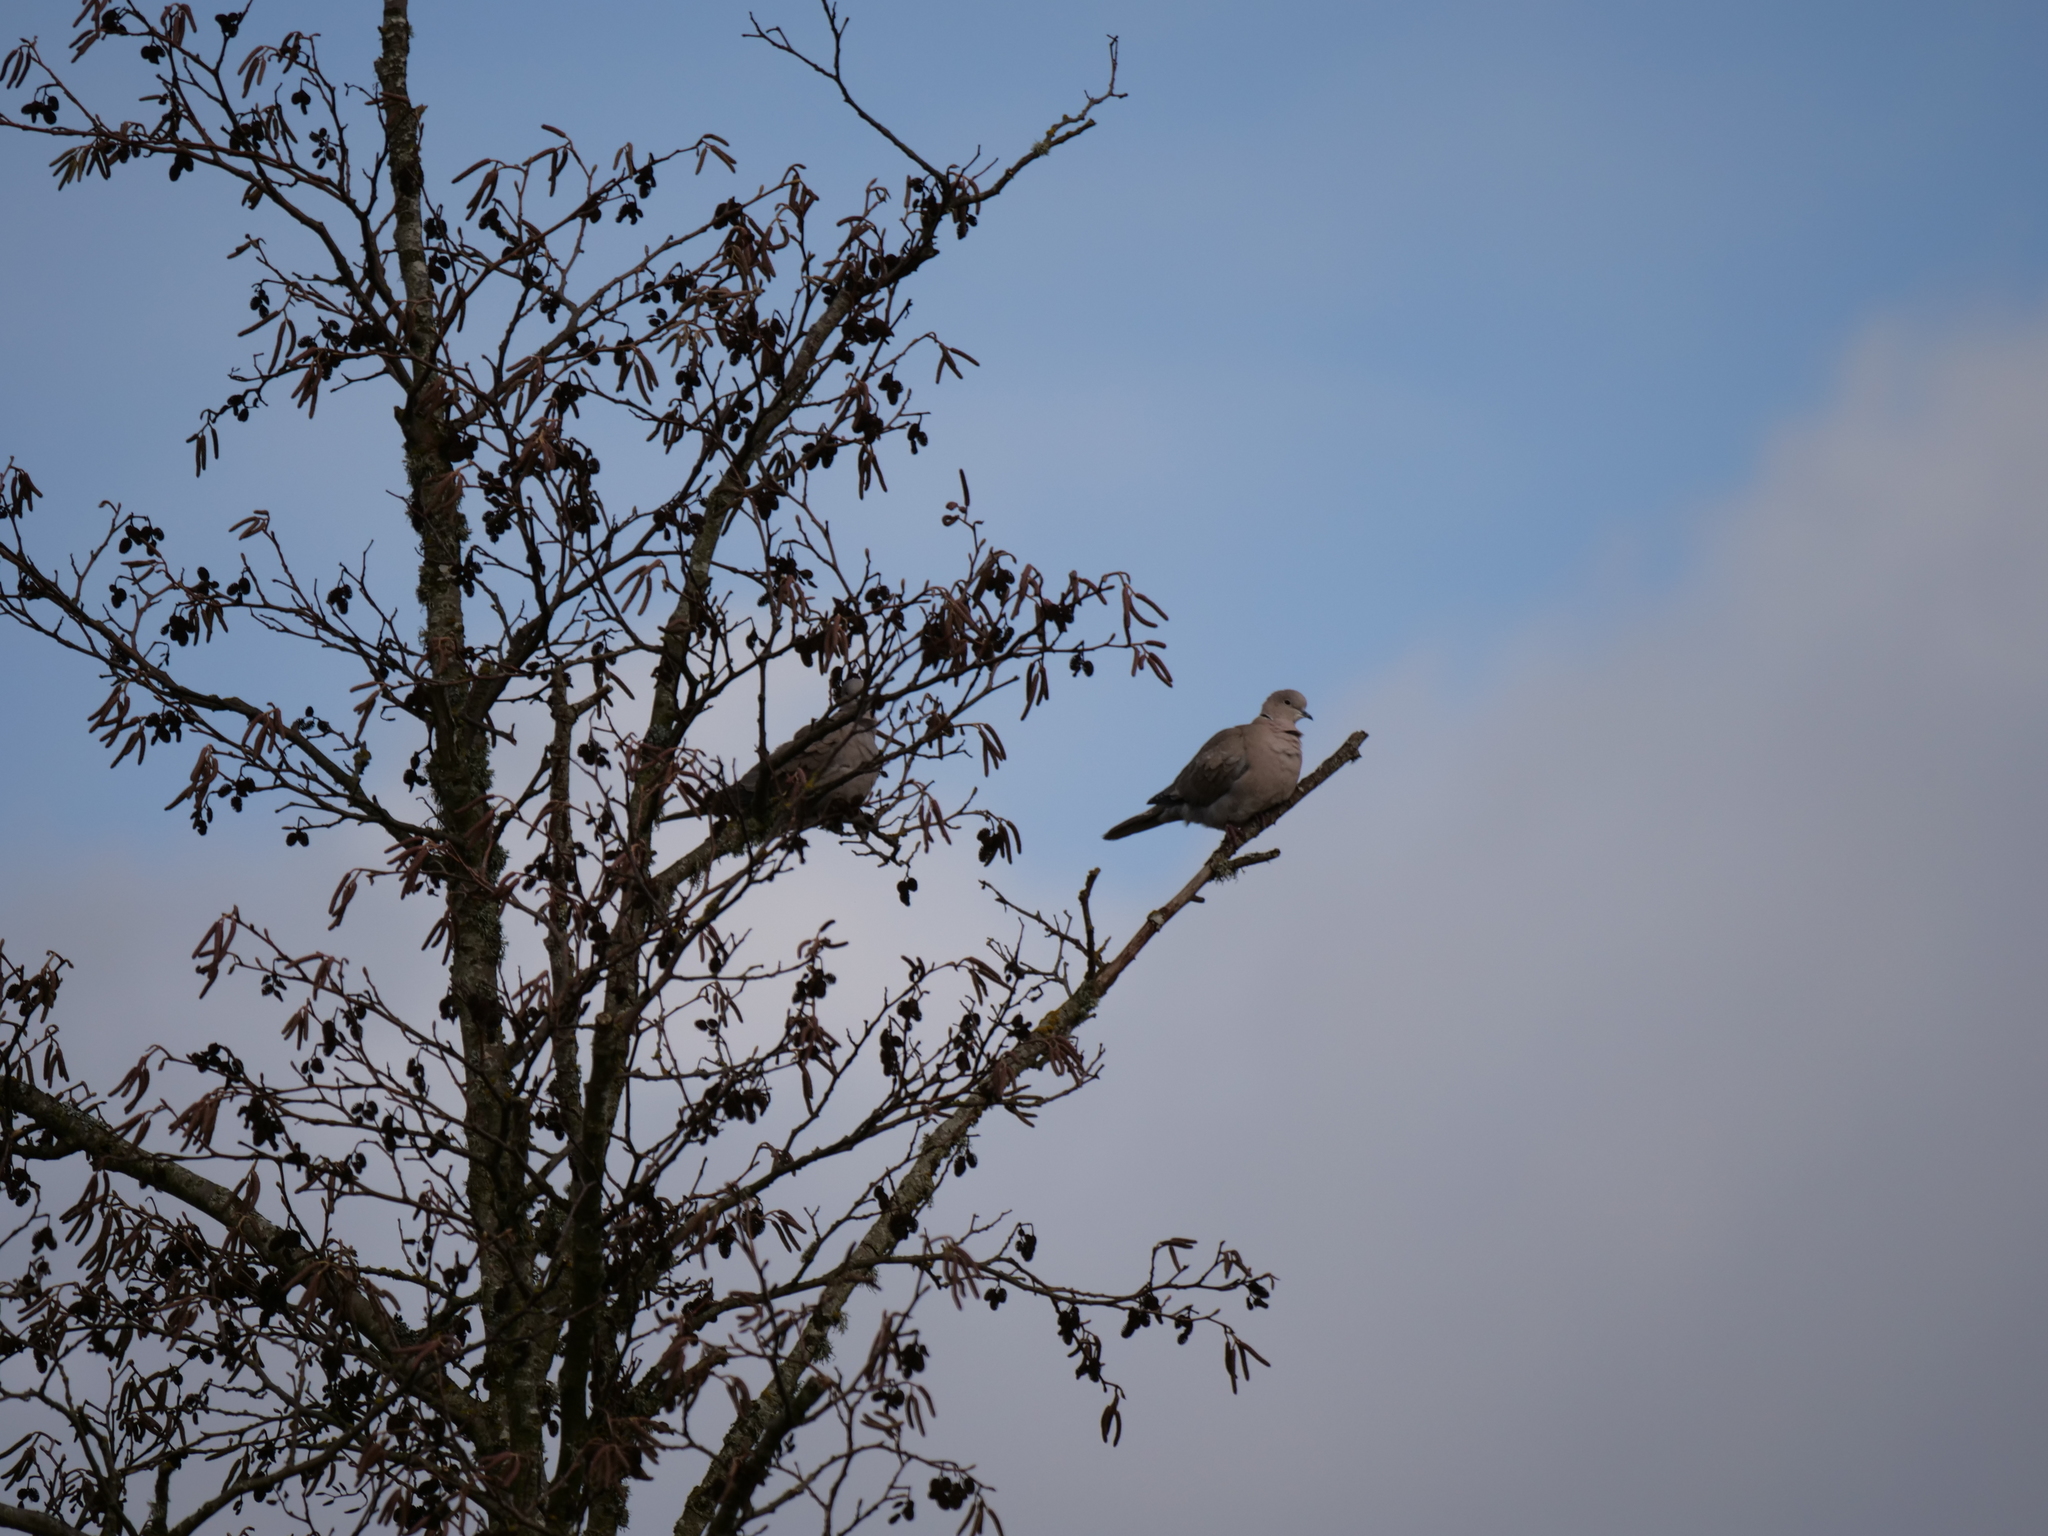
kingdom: Animalia
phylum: Chordata
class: Aves
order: Columbiformes
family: Columbidae
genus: Streptopelia
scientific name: Streptopelia decaocto
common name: Eurasian collared dove
